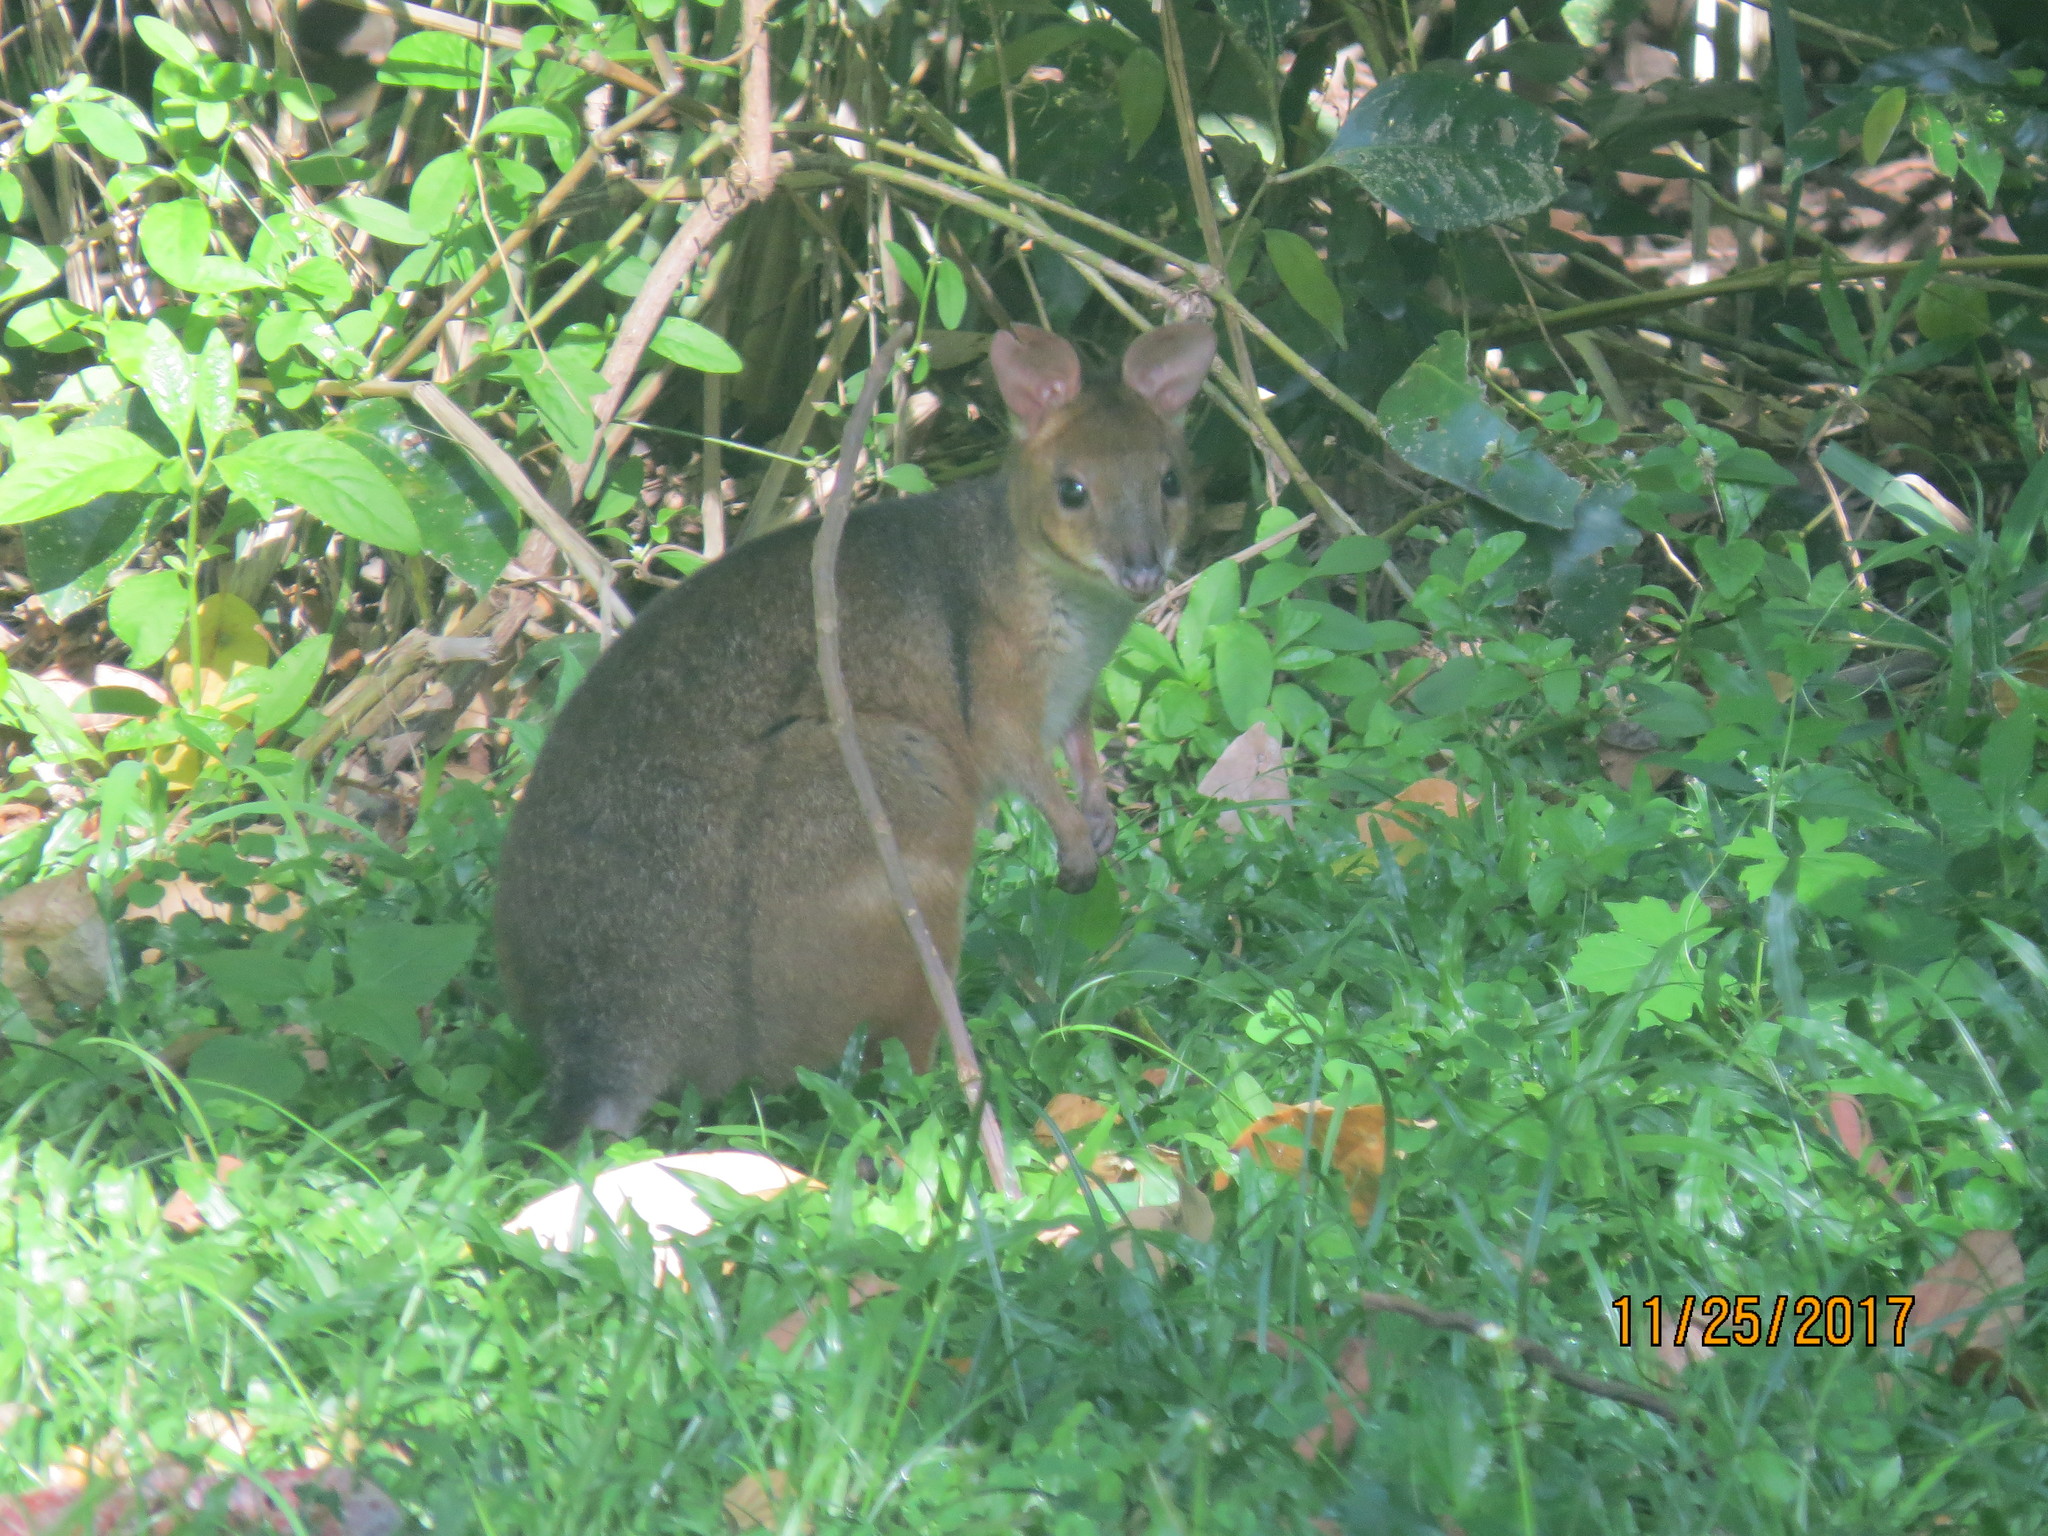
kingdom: Animalia
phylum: Chordata
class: Mammalia
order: Diprotodontia
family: Macropodidae
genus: Thylogale
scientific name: Thylogale stigmatica
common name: Red-legged pademelon
